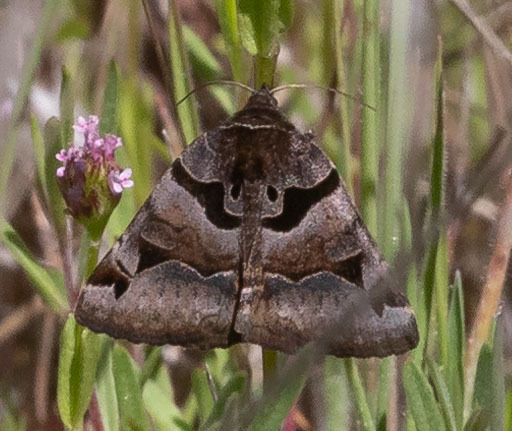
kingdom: Animalia
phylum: Arthropoda
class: Insecta
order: Lepidoptera
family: Erebidae
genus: Euclidia
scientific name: Euclidia ardita
